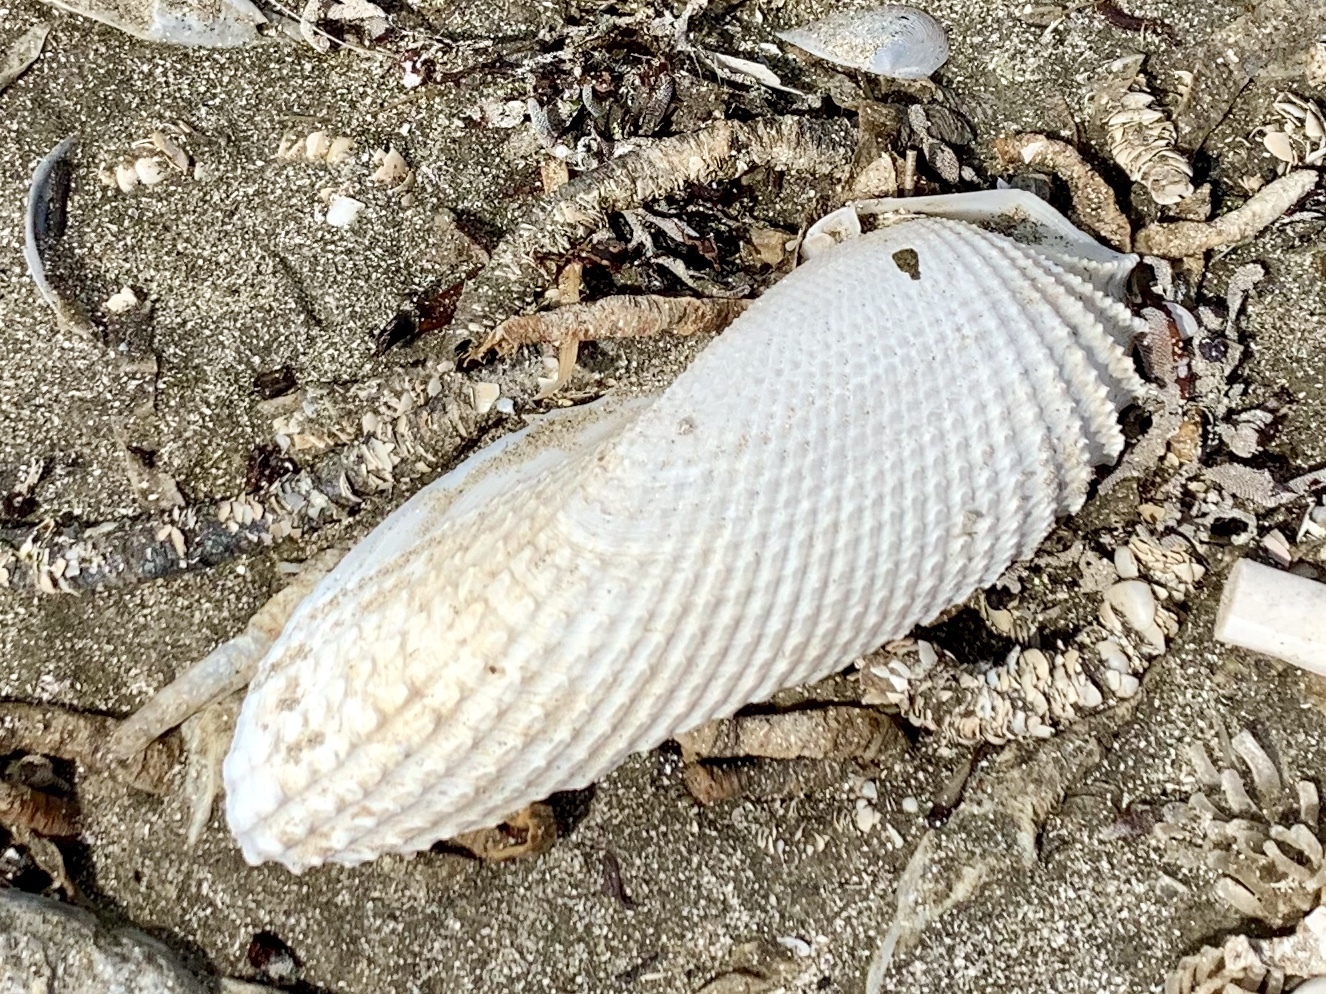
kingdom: Animalia
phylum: Mollusca
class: Bivalvia
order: Myida
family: Pholadidae
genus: Cyrtopleura
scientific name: Cyrtopleura costata
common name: Angel wing
